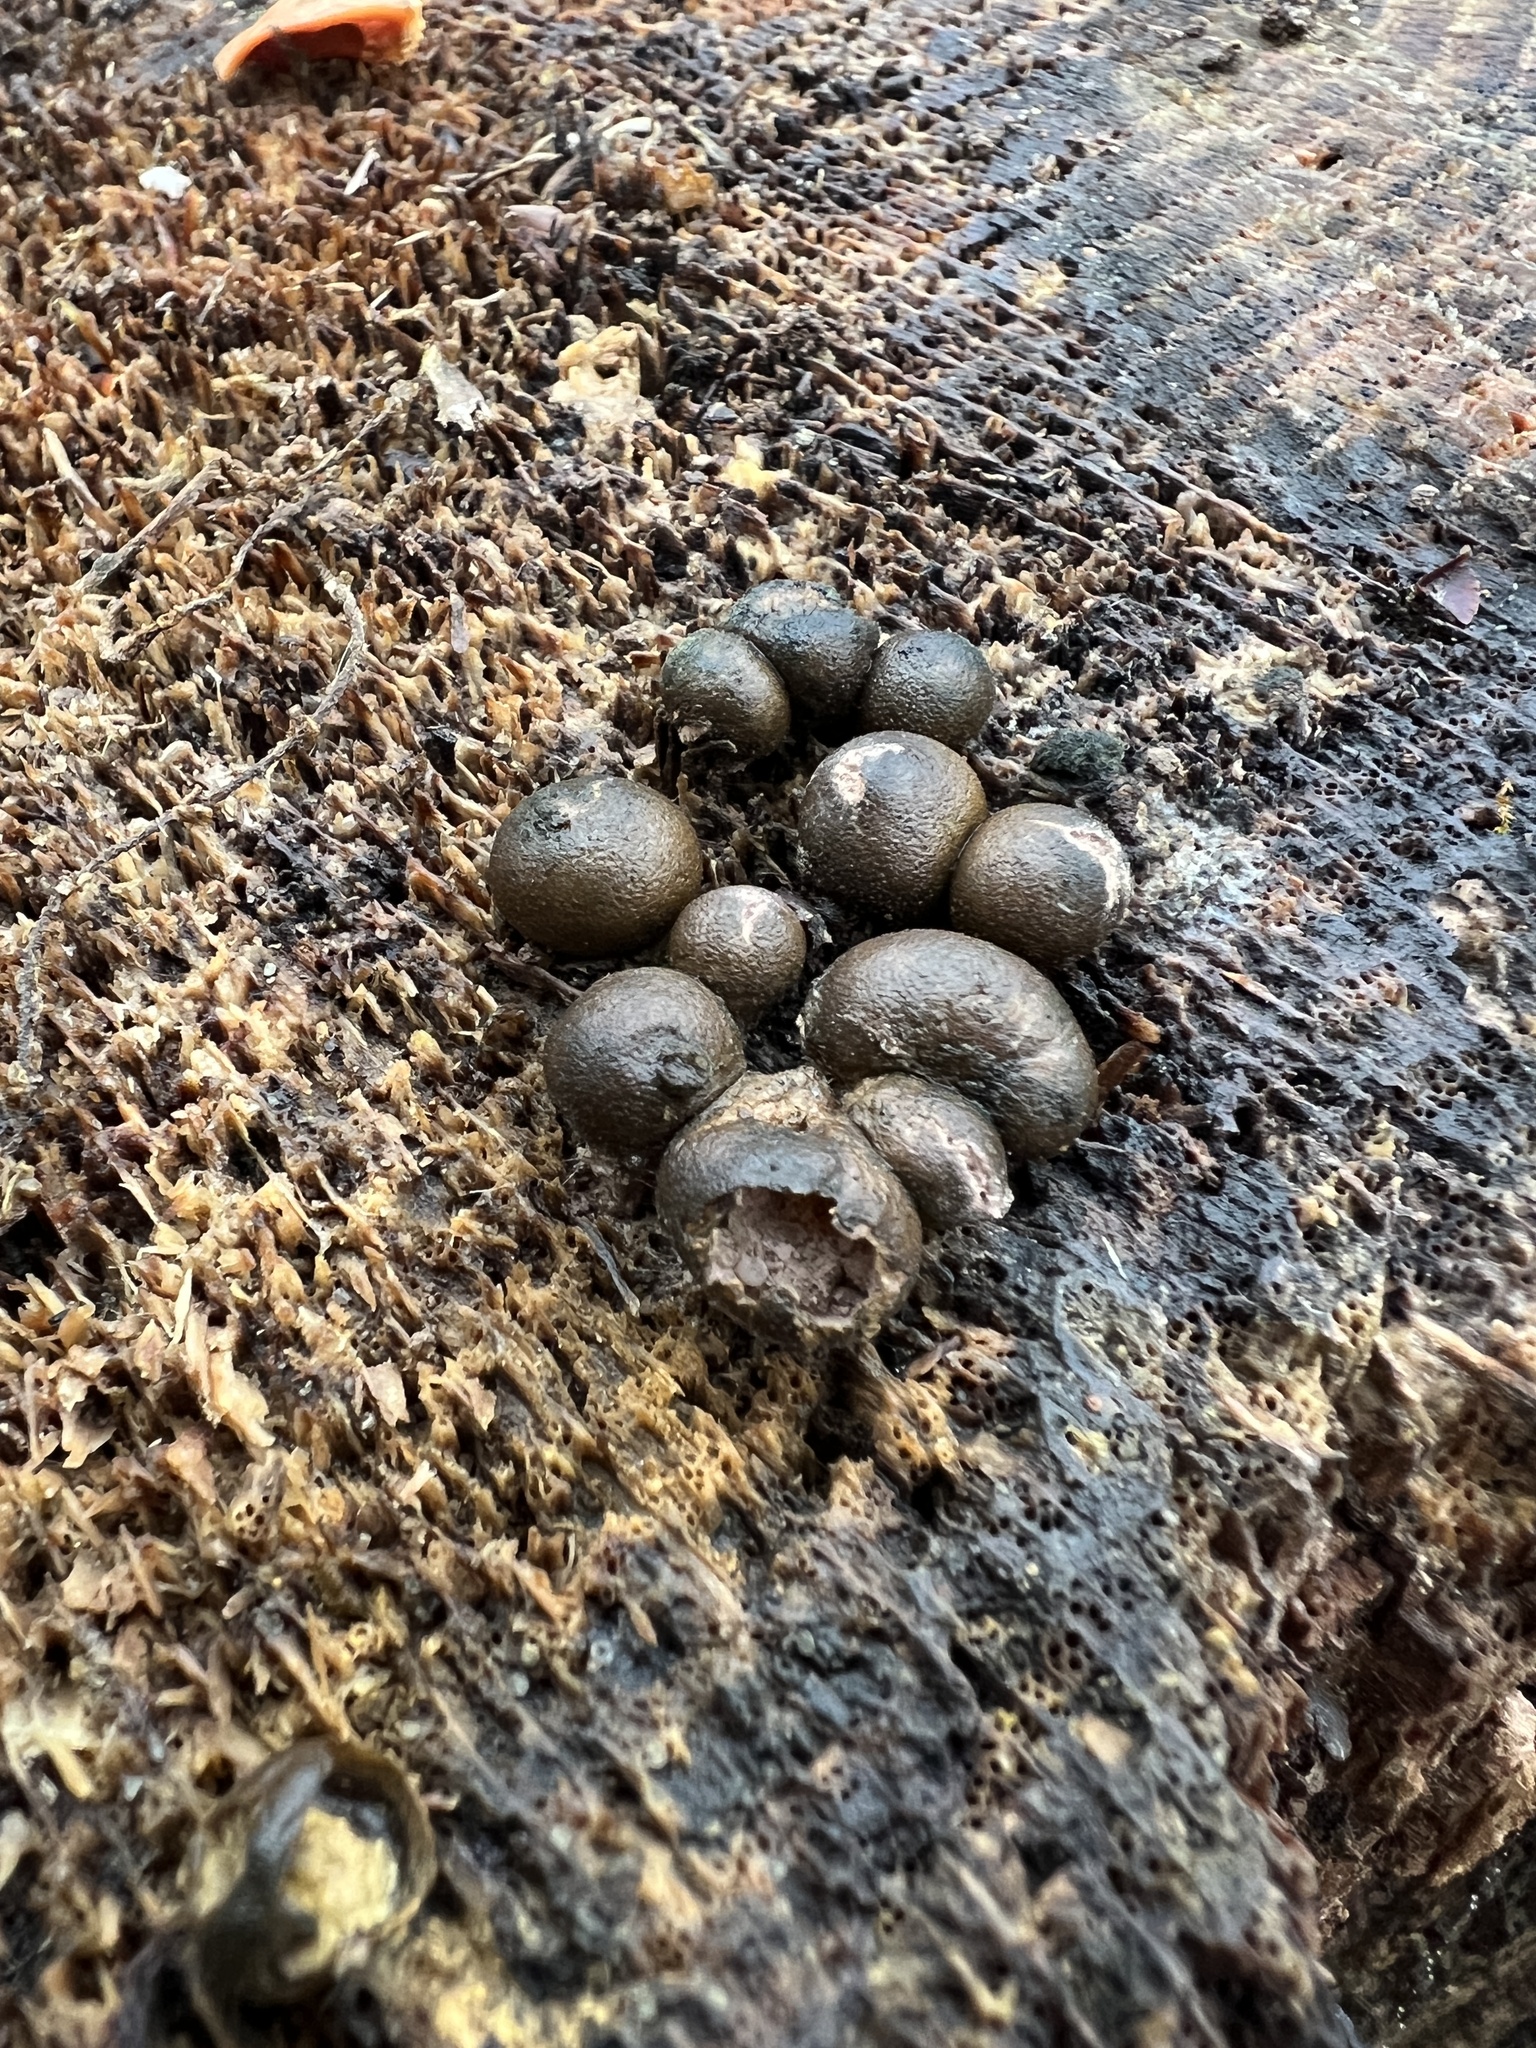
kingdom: Protozoa
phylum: Mycetozoa
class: Myxomycetes
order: Cribrariales
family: Tubiferaceae
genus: Lycogala
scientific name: Lycogala epidendrum
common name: Wolf's milk
